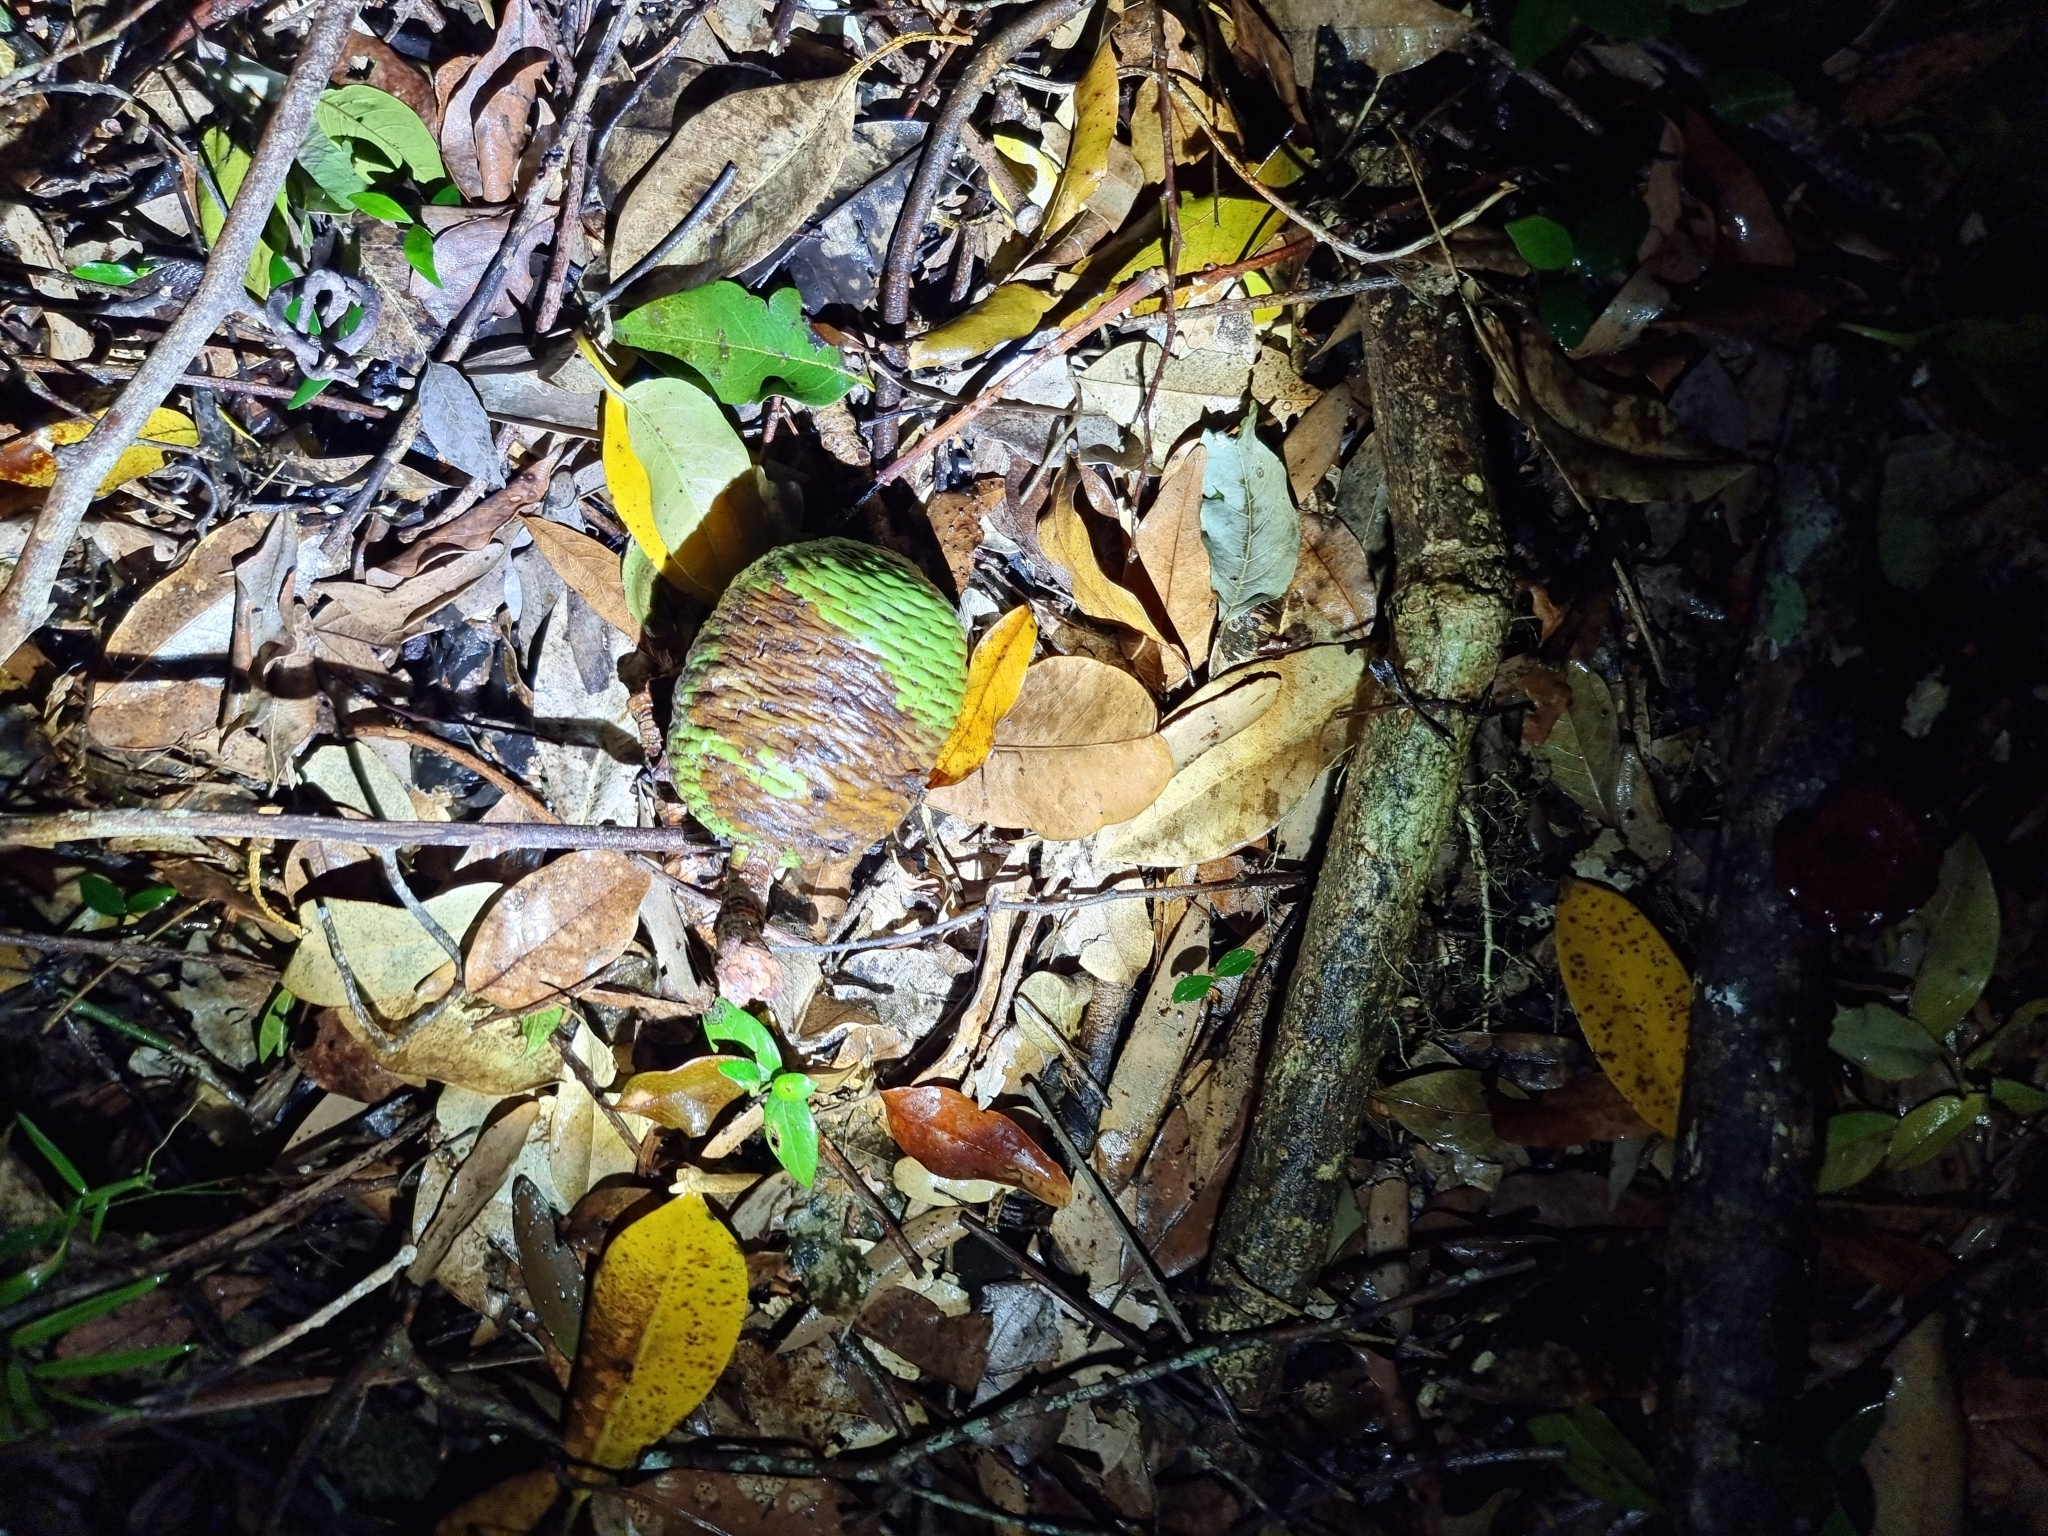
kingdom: Plantae
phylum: Tracheophyta
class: Pinopsida
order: Pinales
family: Araucariaceae
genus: Agathis
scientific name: Agathis robusta
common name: Australian-kauri
